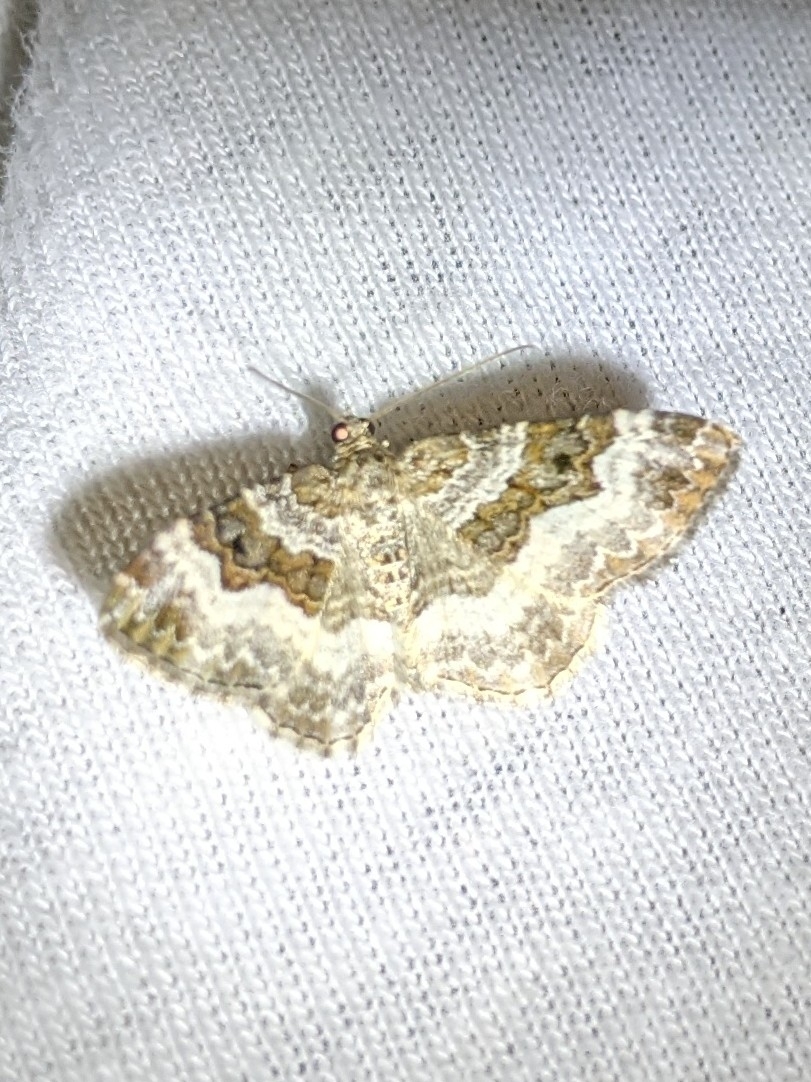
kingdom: Animalia
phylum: Arthropoda
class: Insecta
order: Lepidoptera
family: Geometridae
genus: Epirrhoe
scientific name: Epirrhoe alternata
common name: Common carpet
